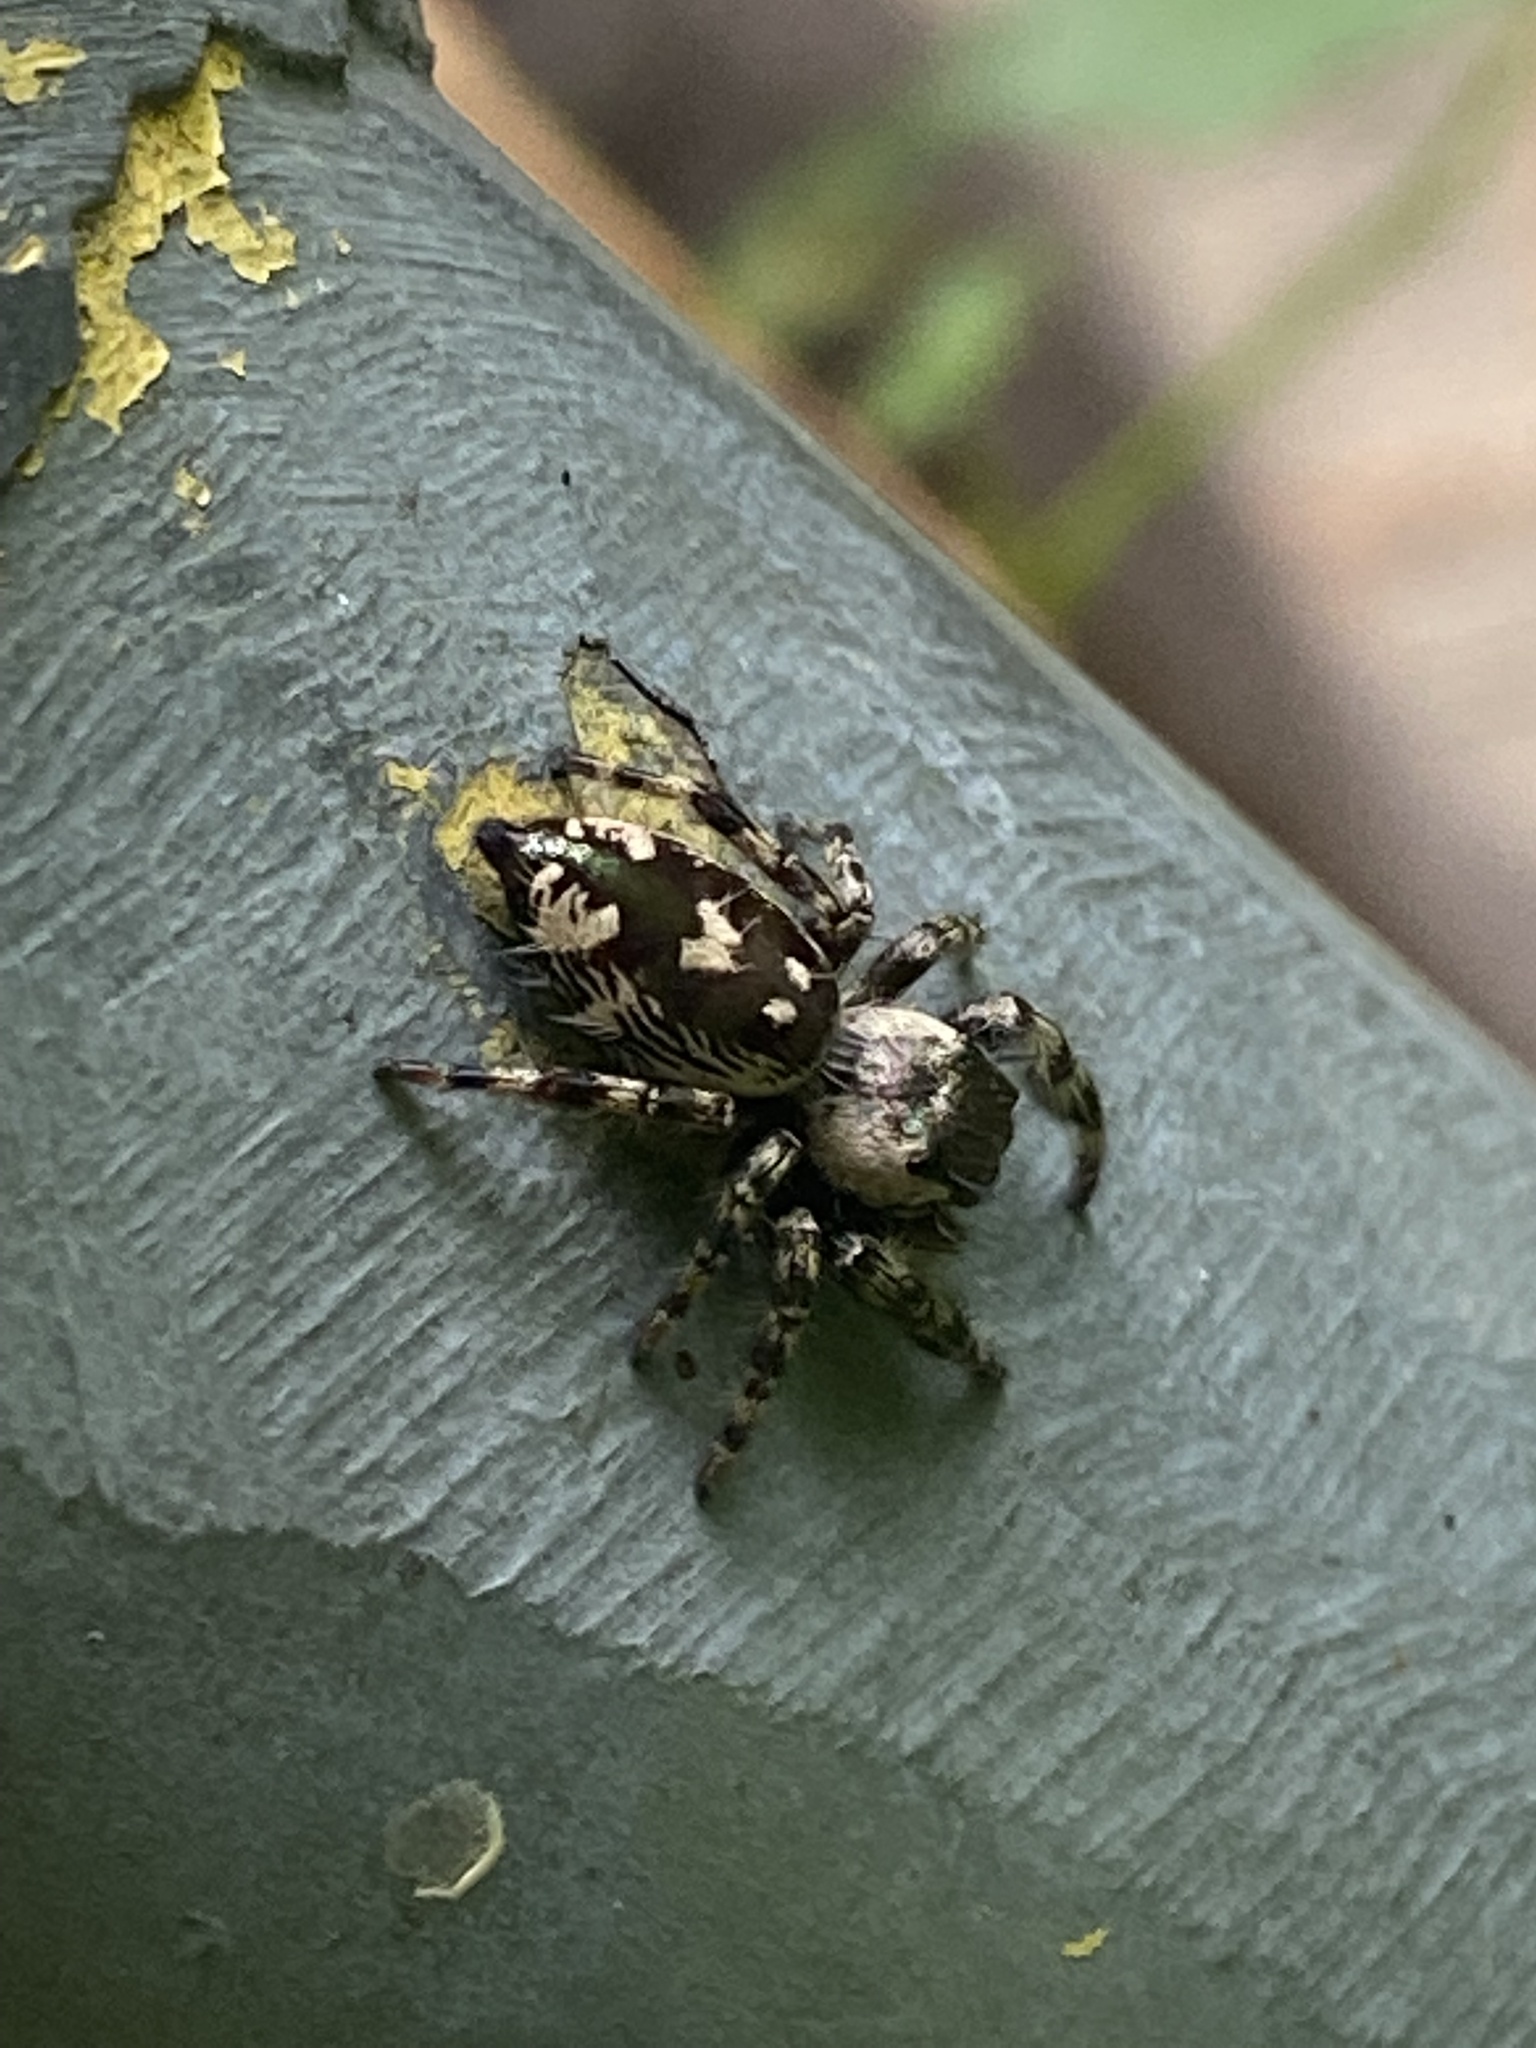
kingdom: Animalia
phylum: Arthropoda
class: Arachnida
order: Araneae
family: Salticidae
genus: Phidippus
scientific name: Phidippus otiosus
